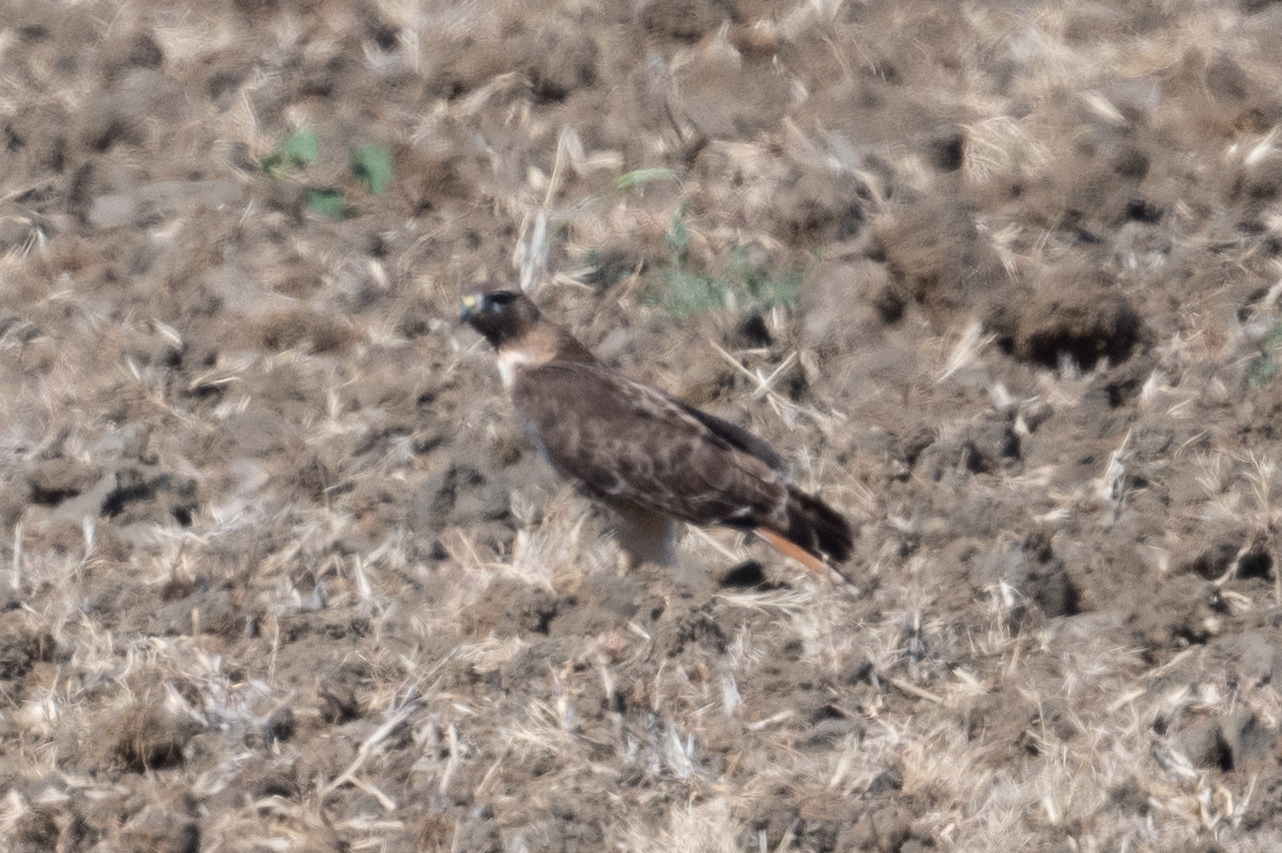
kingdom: Animalia
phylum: Chordata
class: Aves
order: Accipitriformes
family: Accipitridae
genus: Buteo
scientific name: Buteo jamaicensis
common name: Red-tailed hawk
